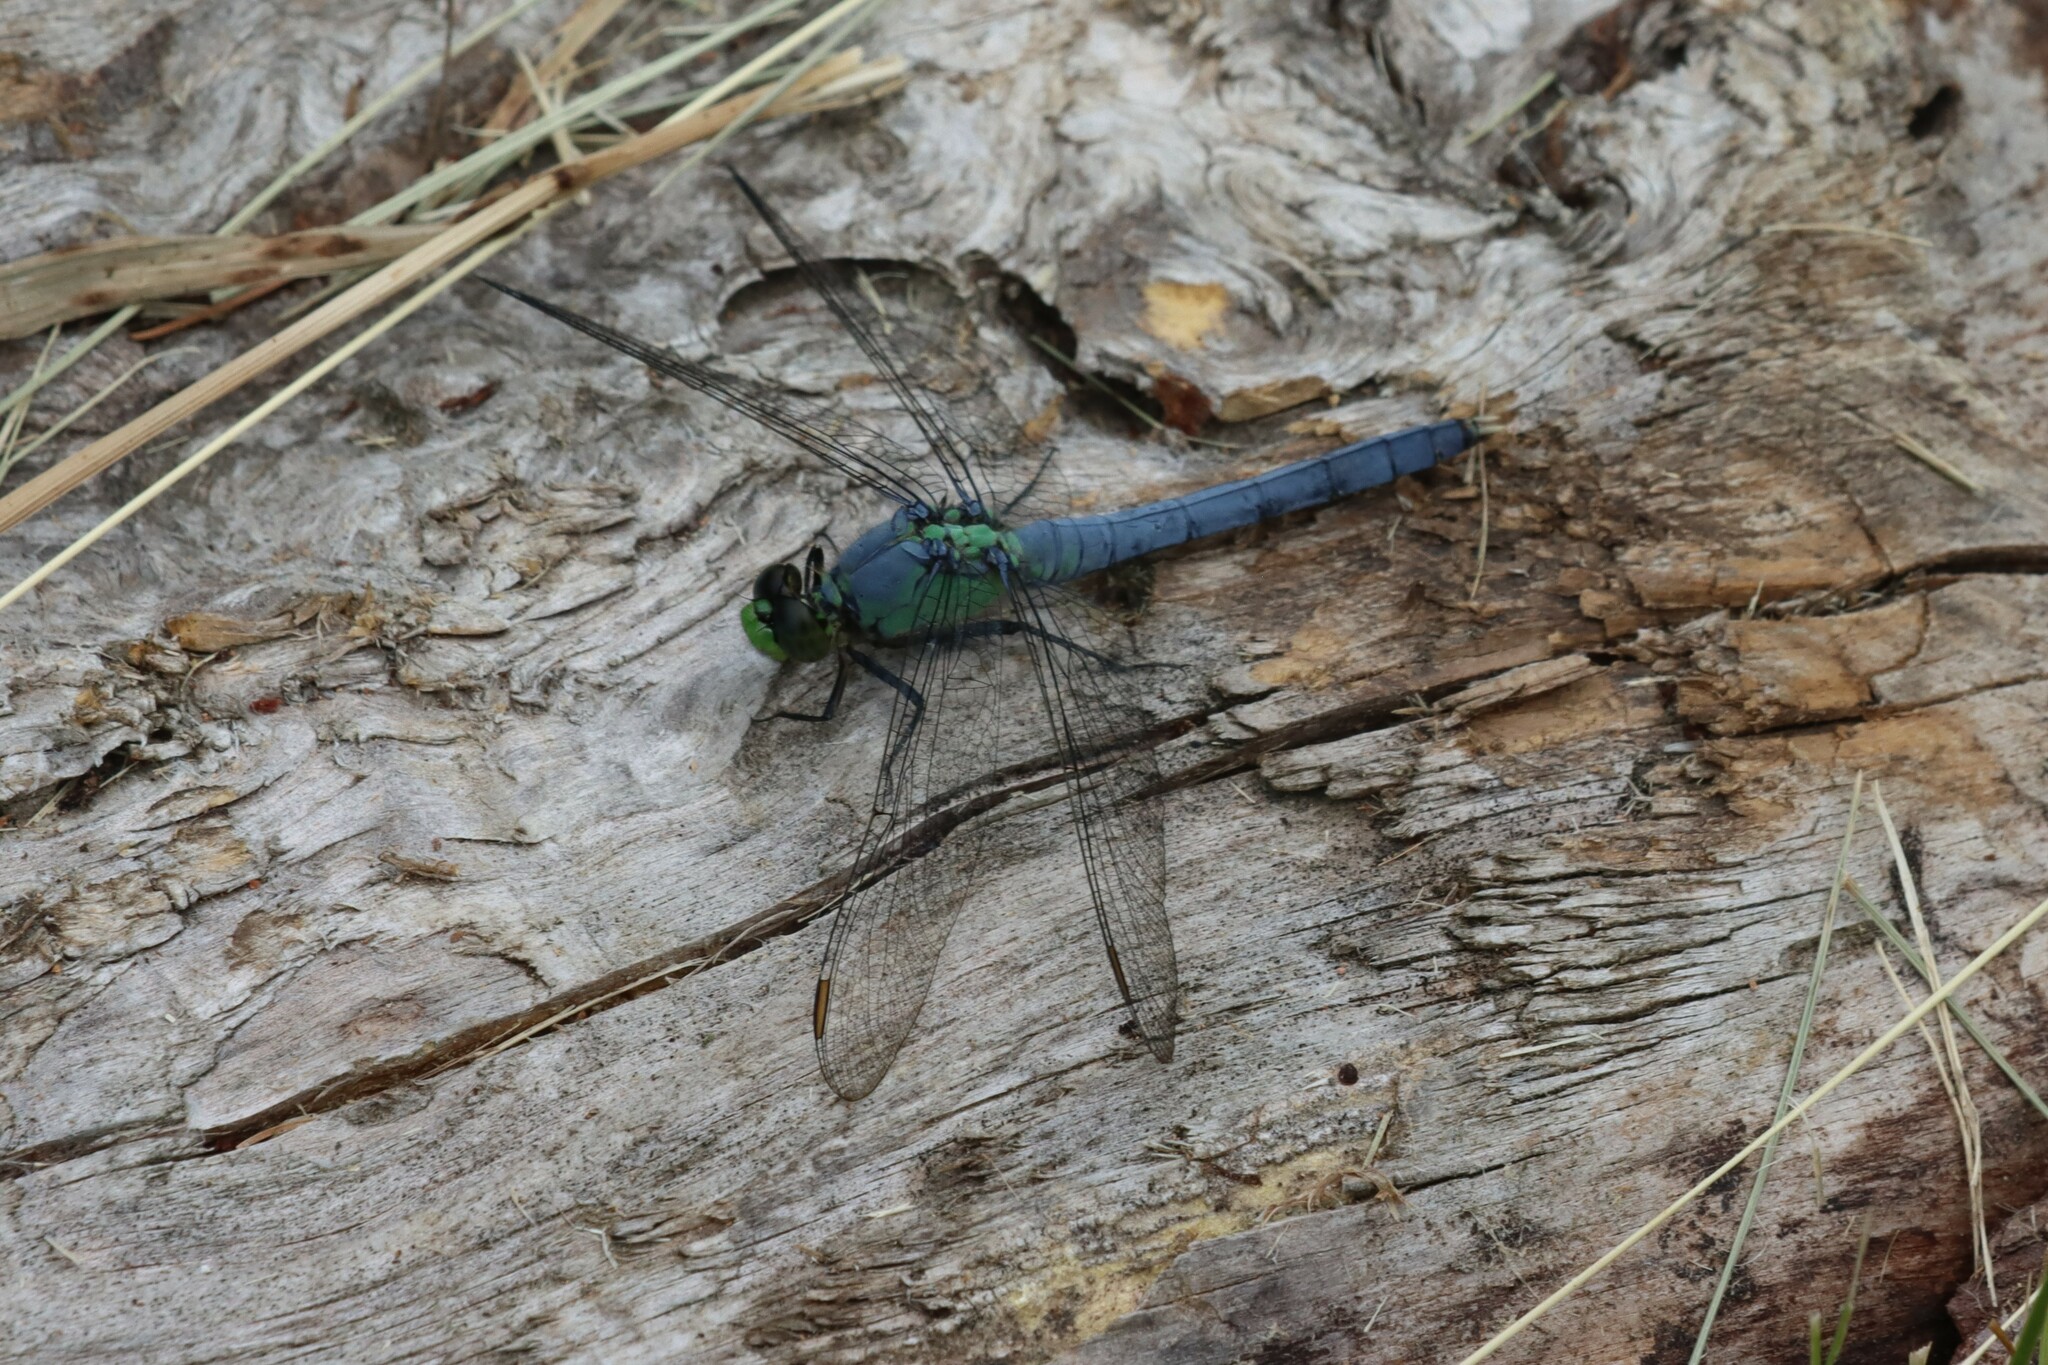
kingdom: Animalia
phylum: Arthropoda
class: Insecta
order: Odonata
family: Libellulidae
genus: Erythemis
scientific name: Erythemis simplicicollis
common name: Eastern pondhawk
